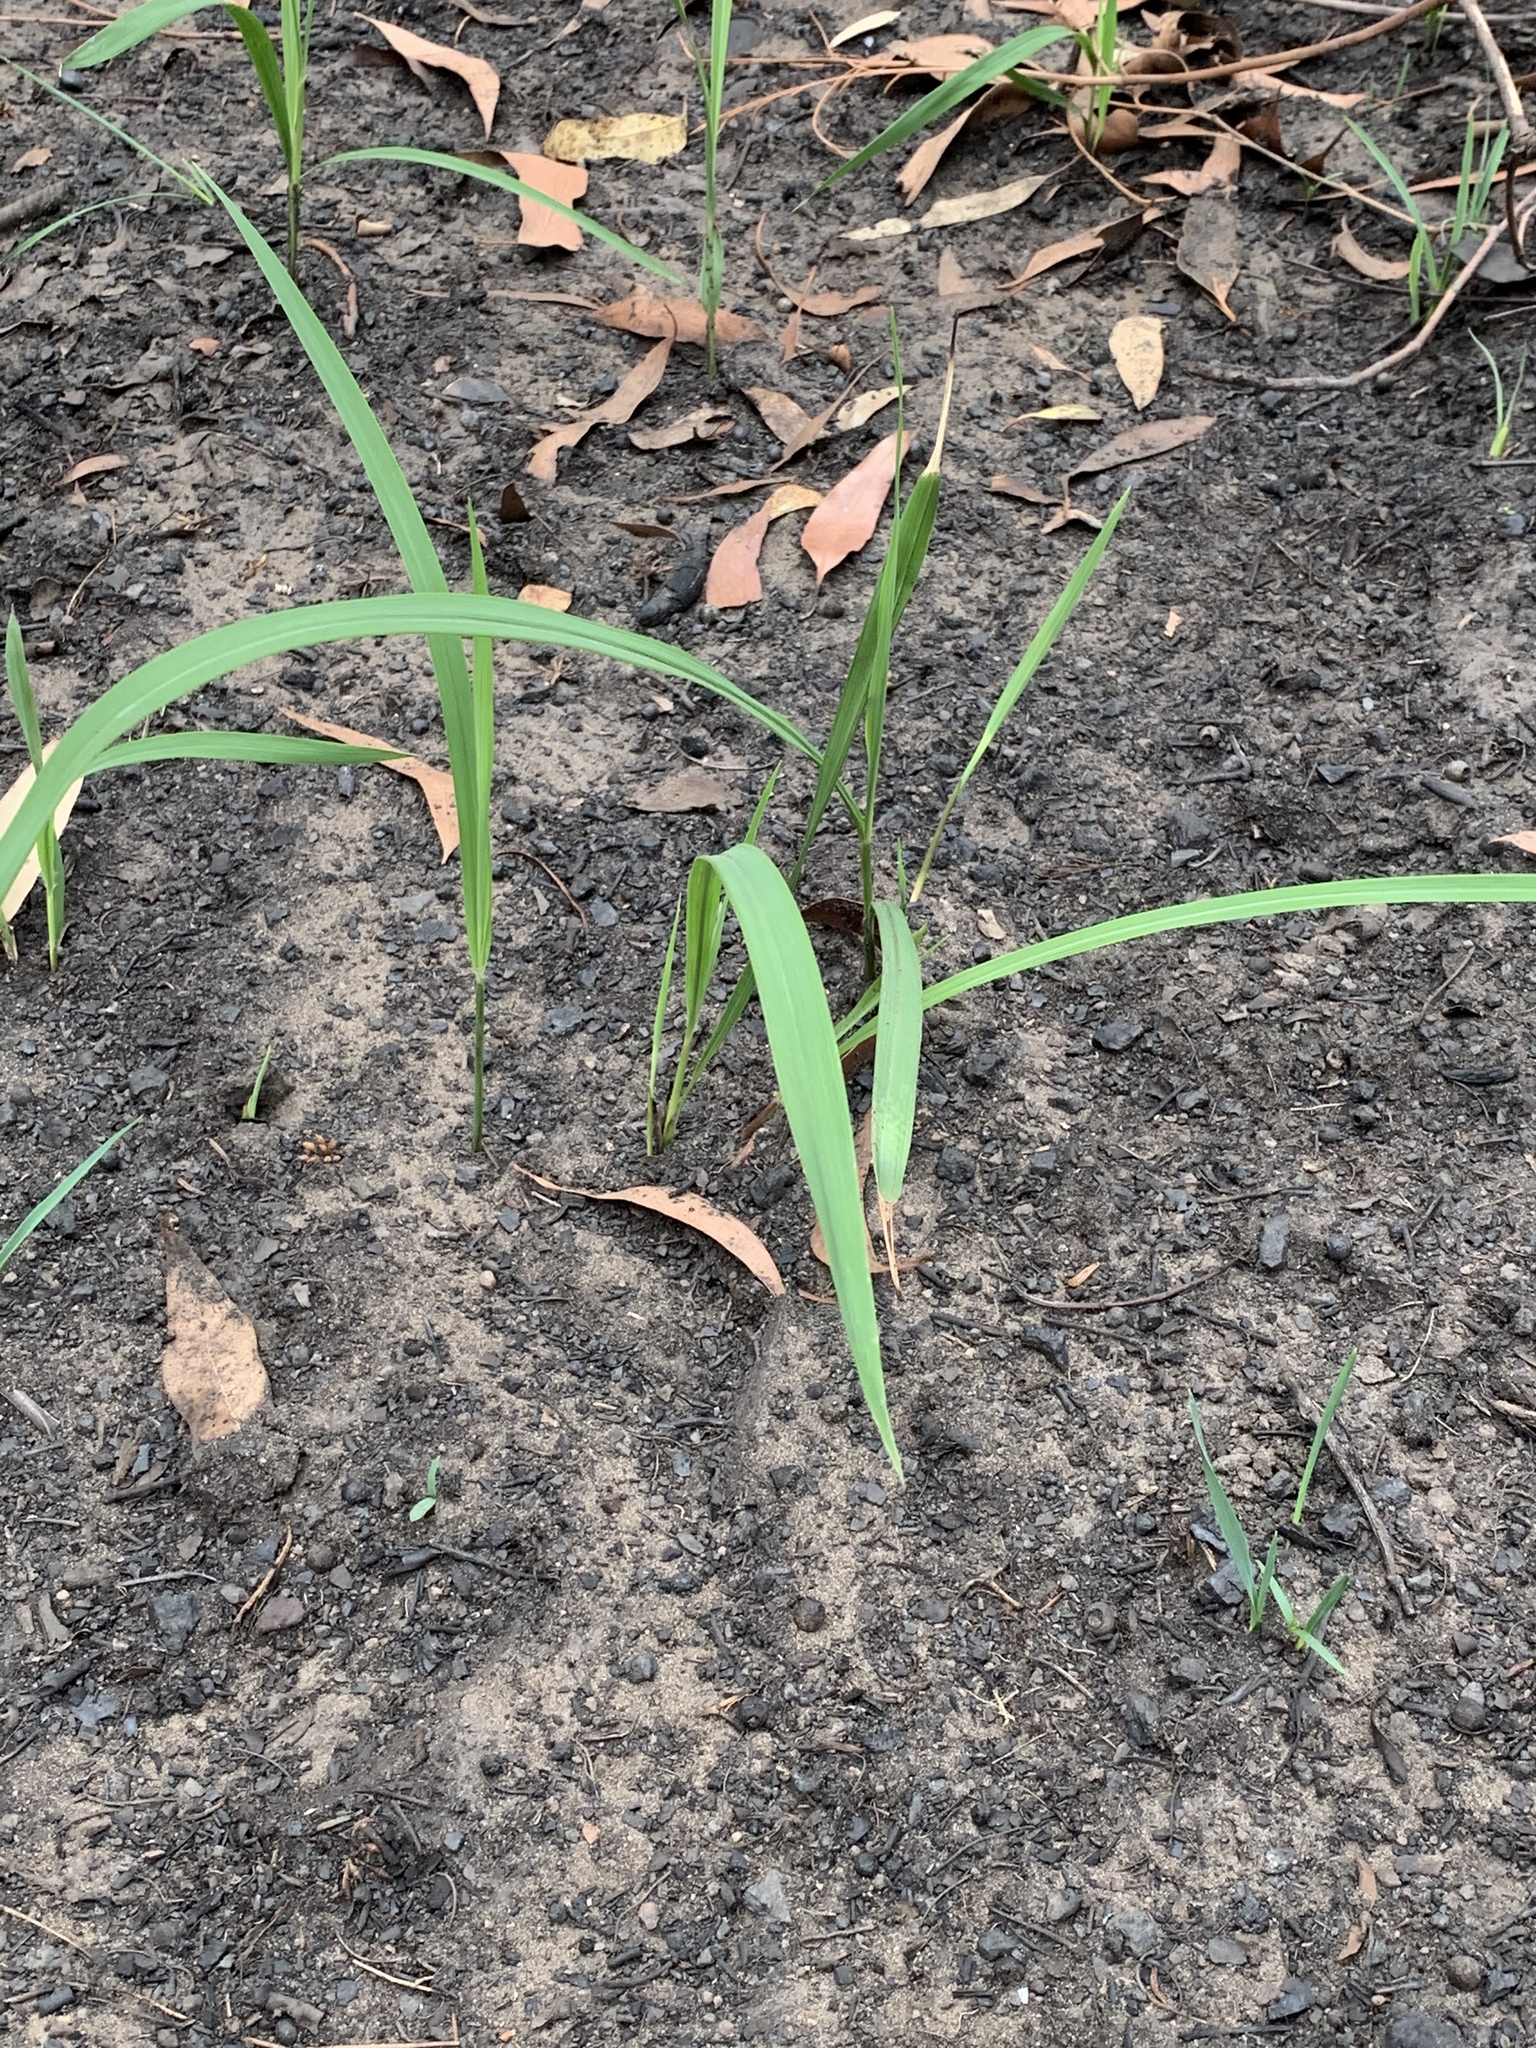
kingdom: Plantae
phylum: Tracheophyta
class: Liliopsida
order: Poales
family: Poaceae
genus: Imperata
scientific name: Imperata cylindrica
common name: Cogongrass
